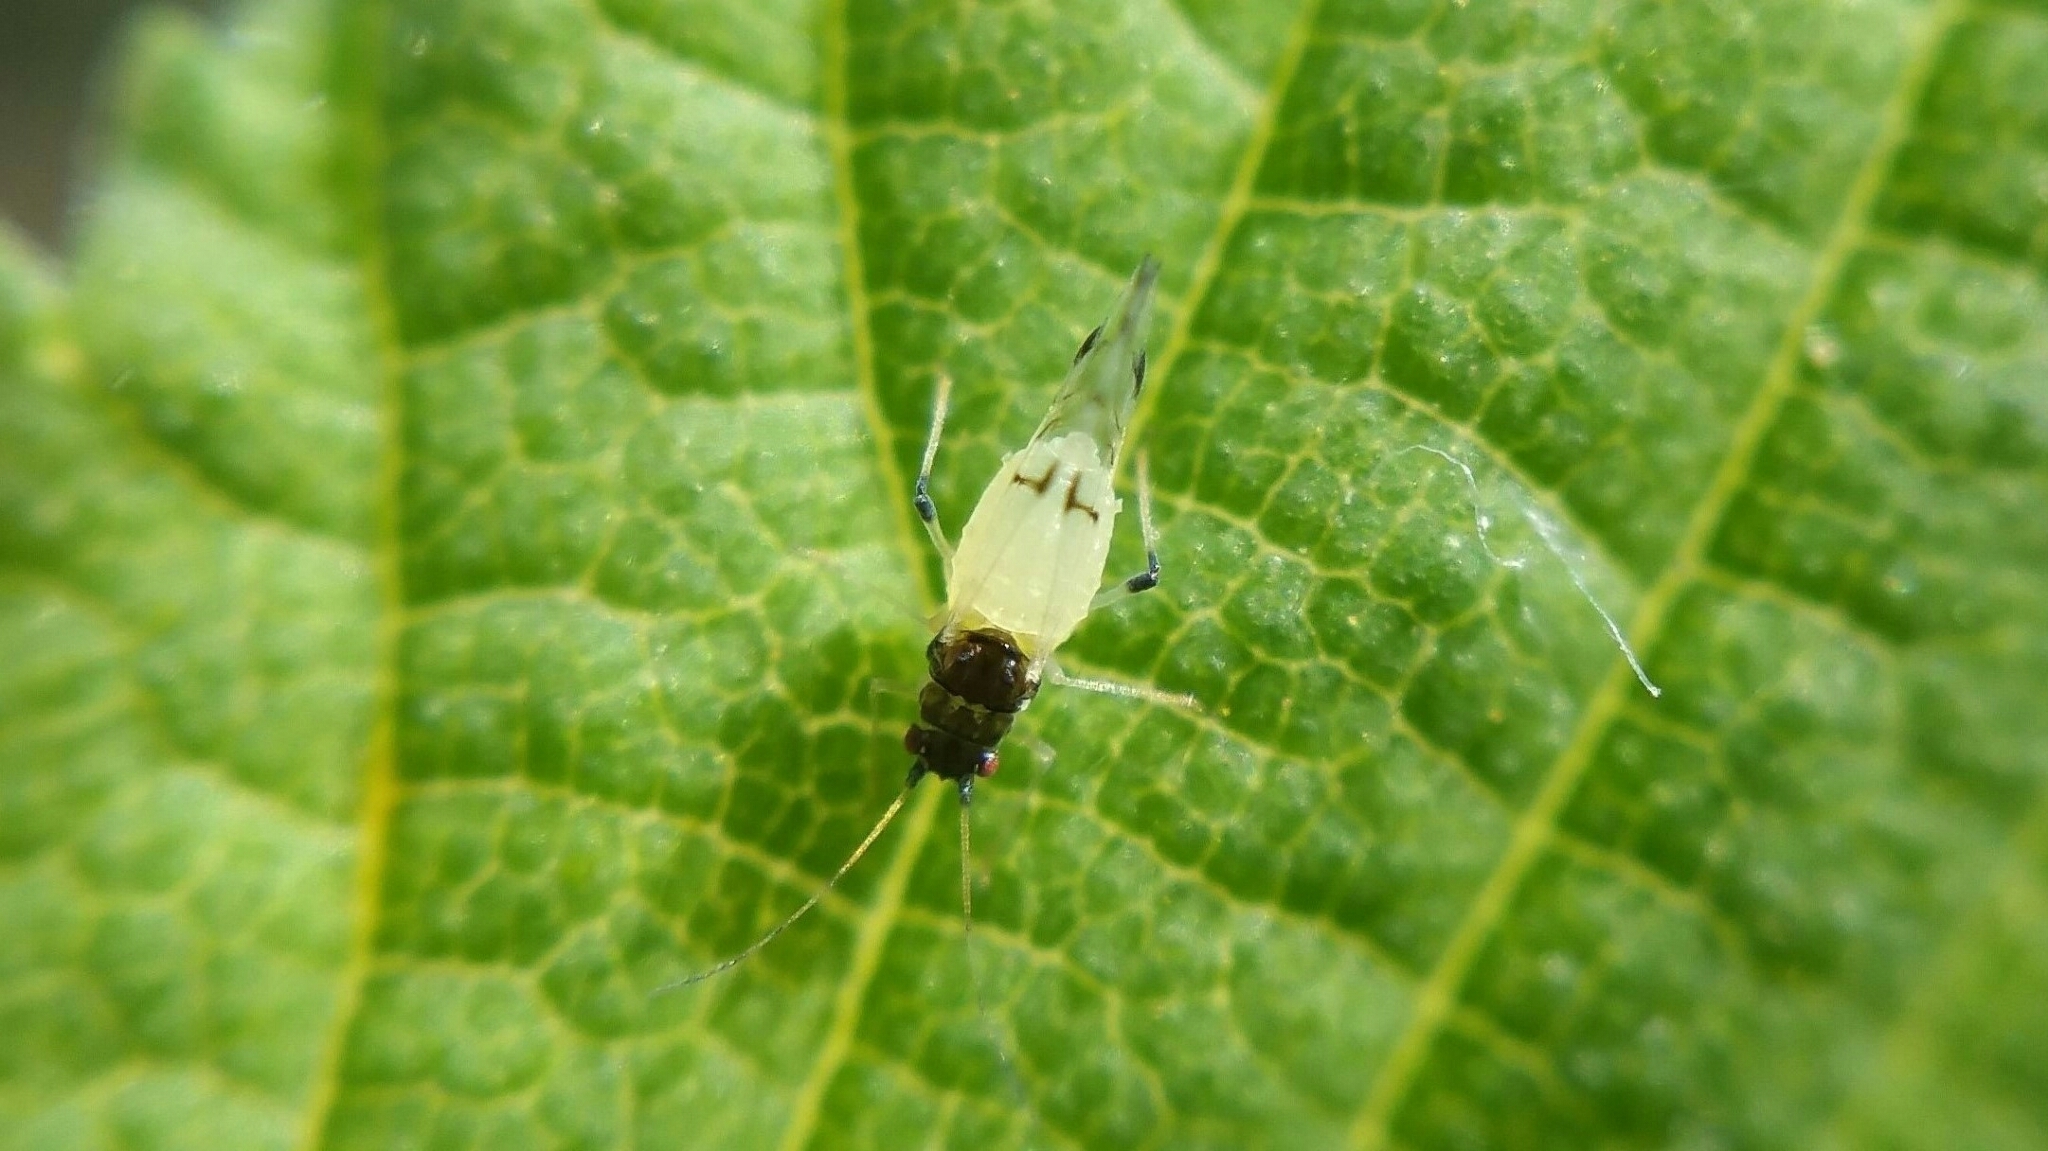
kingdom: Animalia
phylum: Arthropoda
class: Insecta
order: Hemiptera
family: Aphididae
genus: Tinocallis
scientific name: Tinocallis takachihoensis
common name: Aphid
